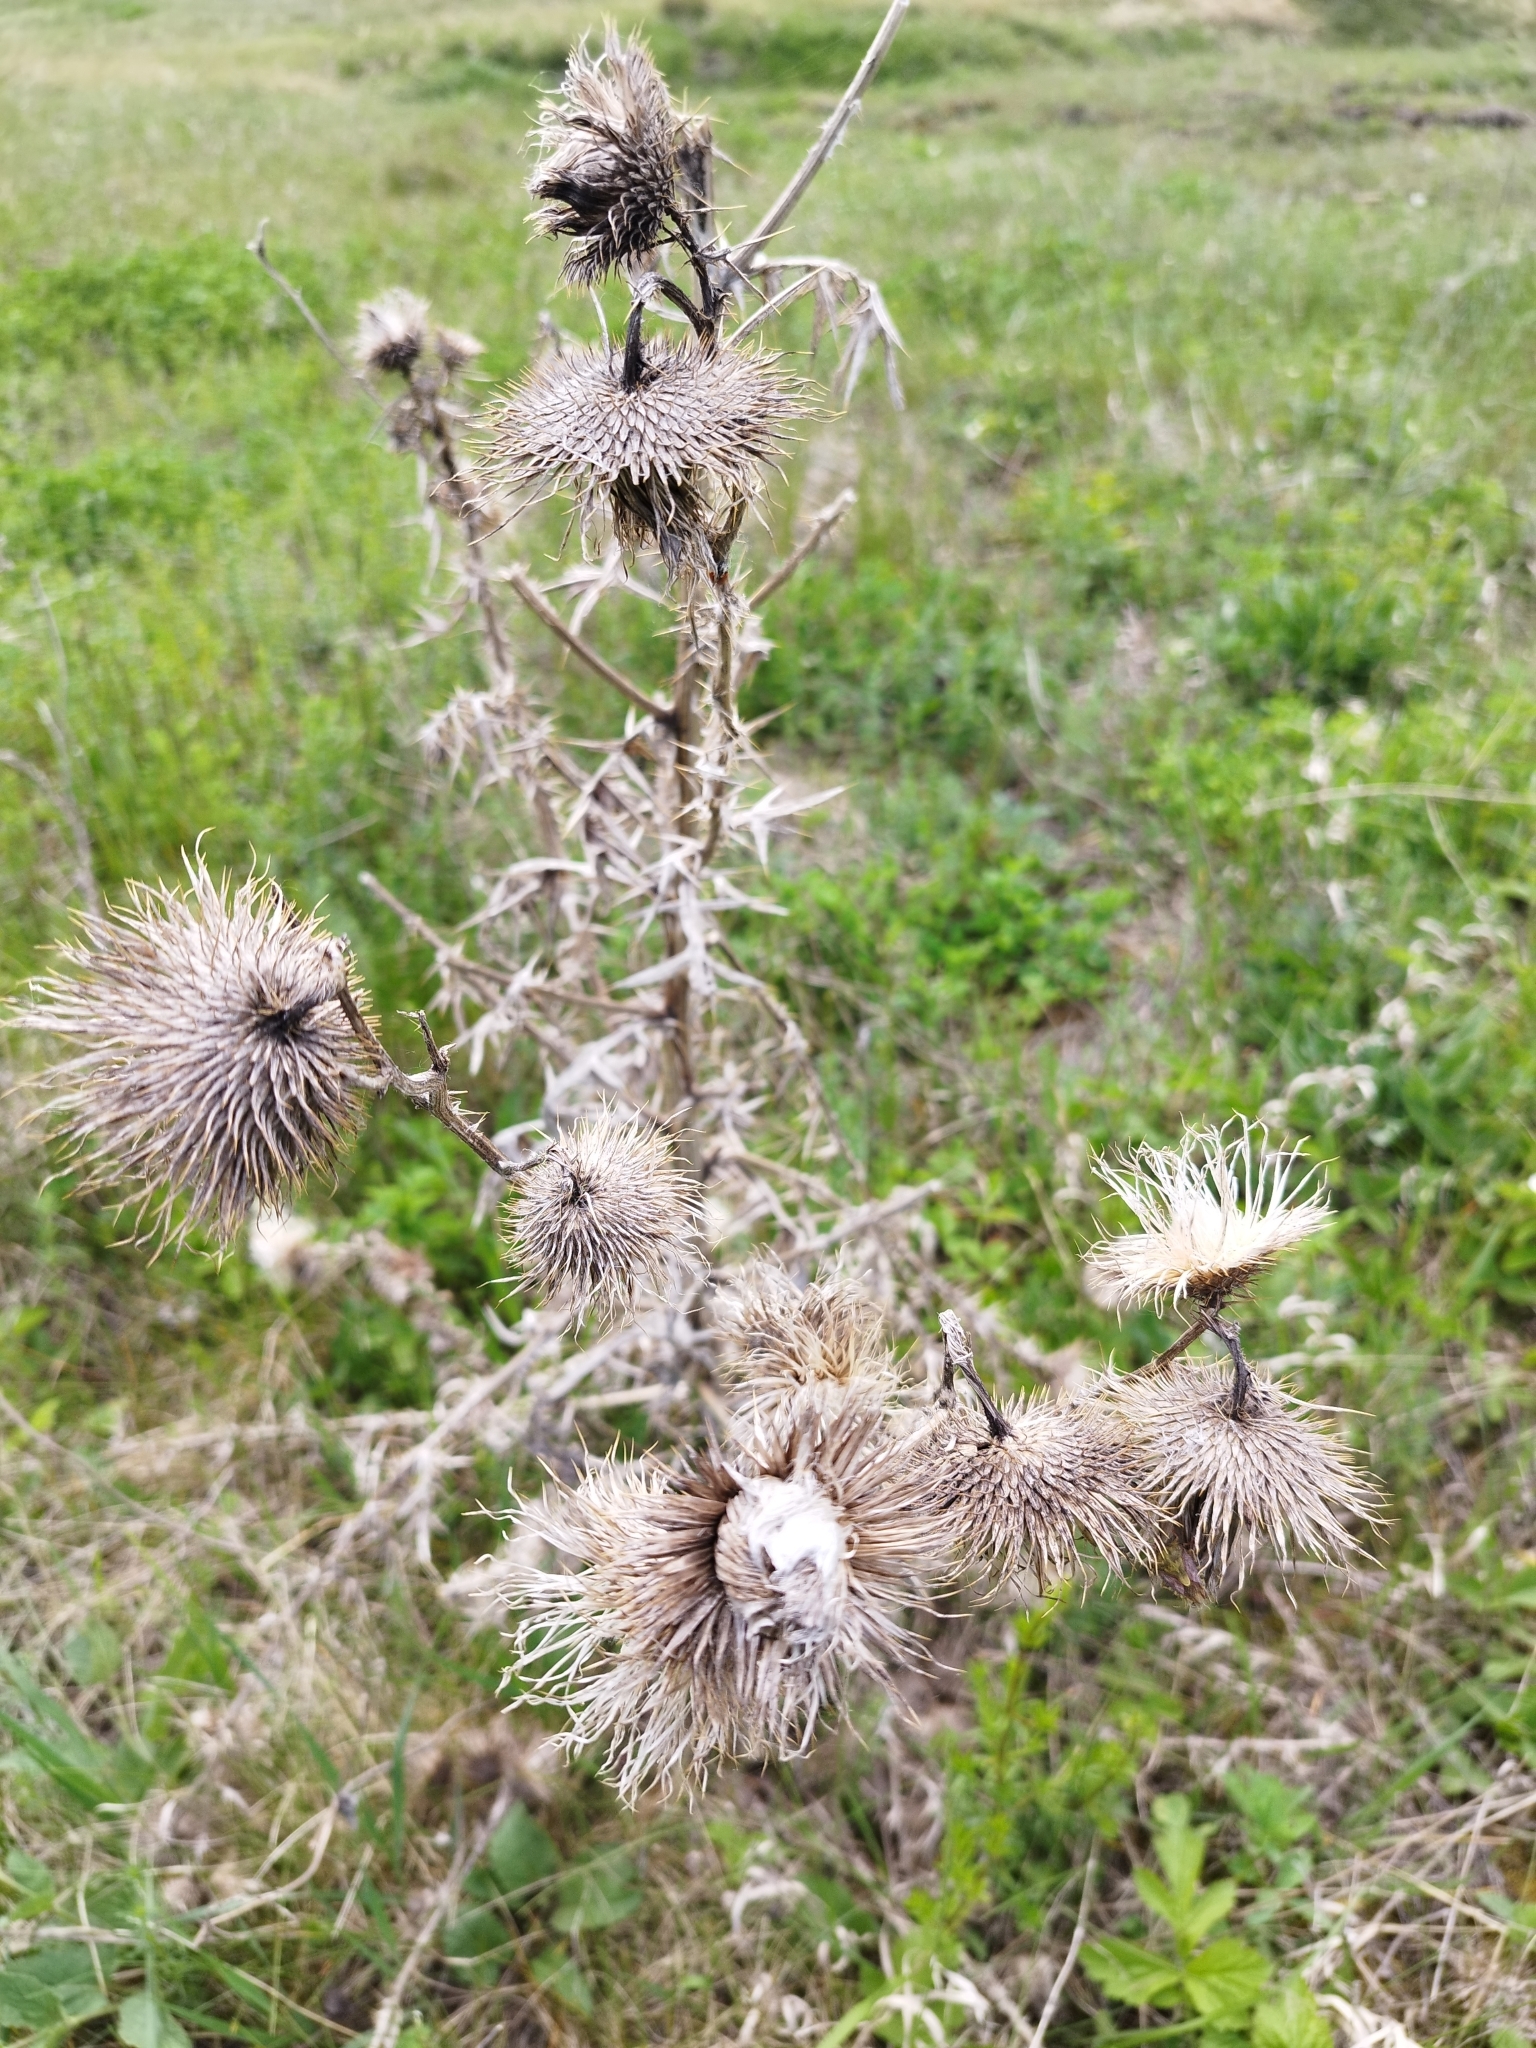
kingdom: Plantae
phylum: Tracheophyta
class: Magnoliopsida
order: Asterales
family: Asteraceae
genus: Cirsium
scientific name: Cirsium vulgare
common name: Bull thistle
